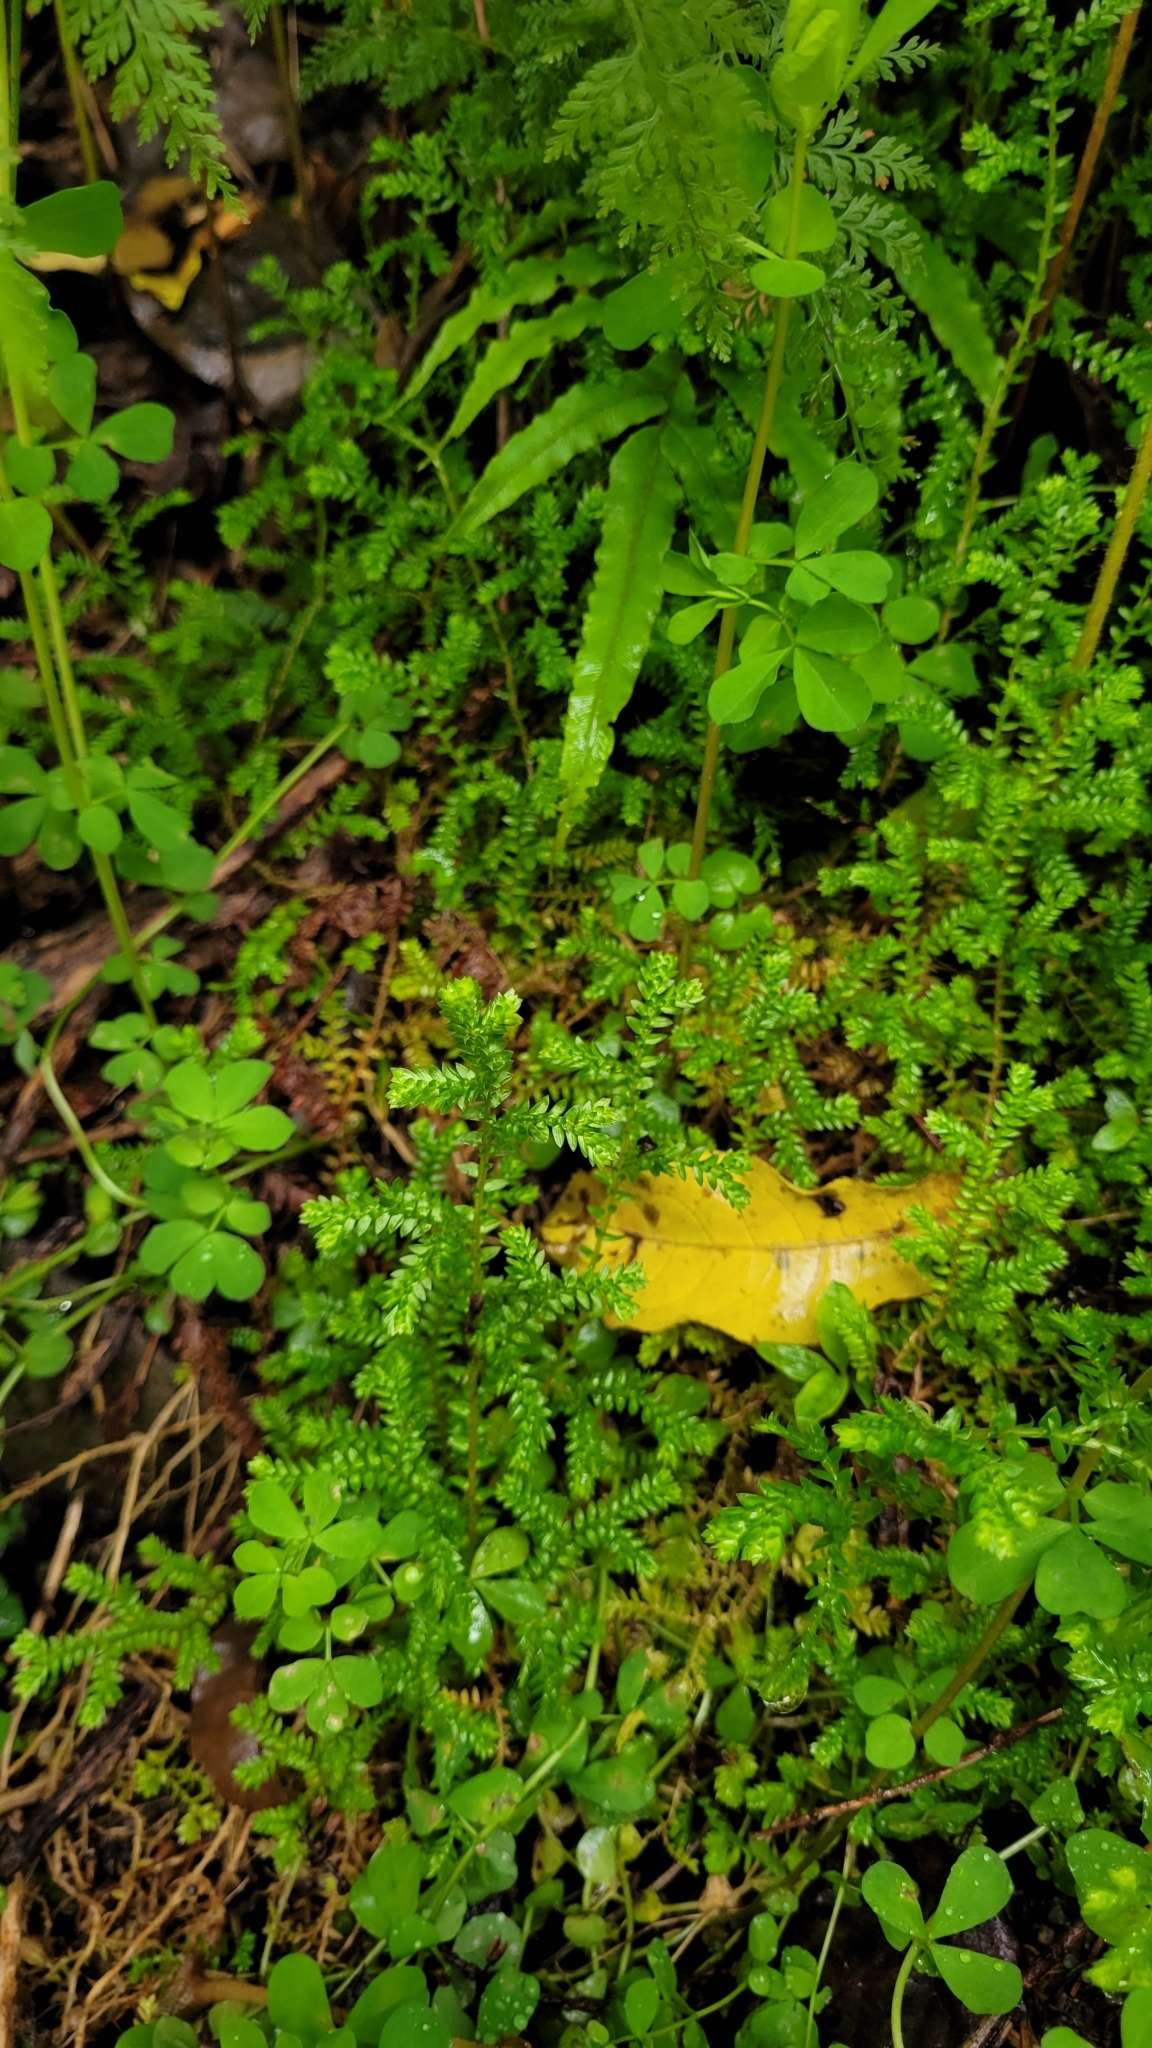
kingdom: Plantae
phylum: Tracheophyta
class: Lycopodiopsida
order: Selaginellales
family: Selaginellaceae
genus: Selaginella
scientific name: Selaginella kraussiana
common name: Krauss' spikemoss
